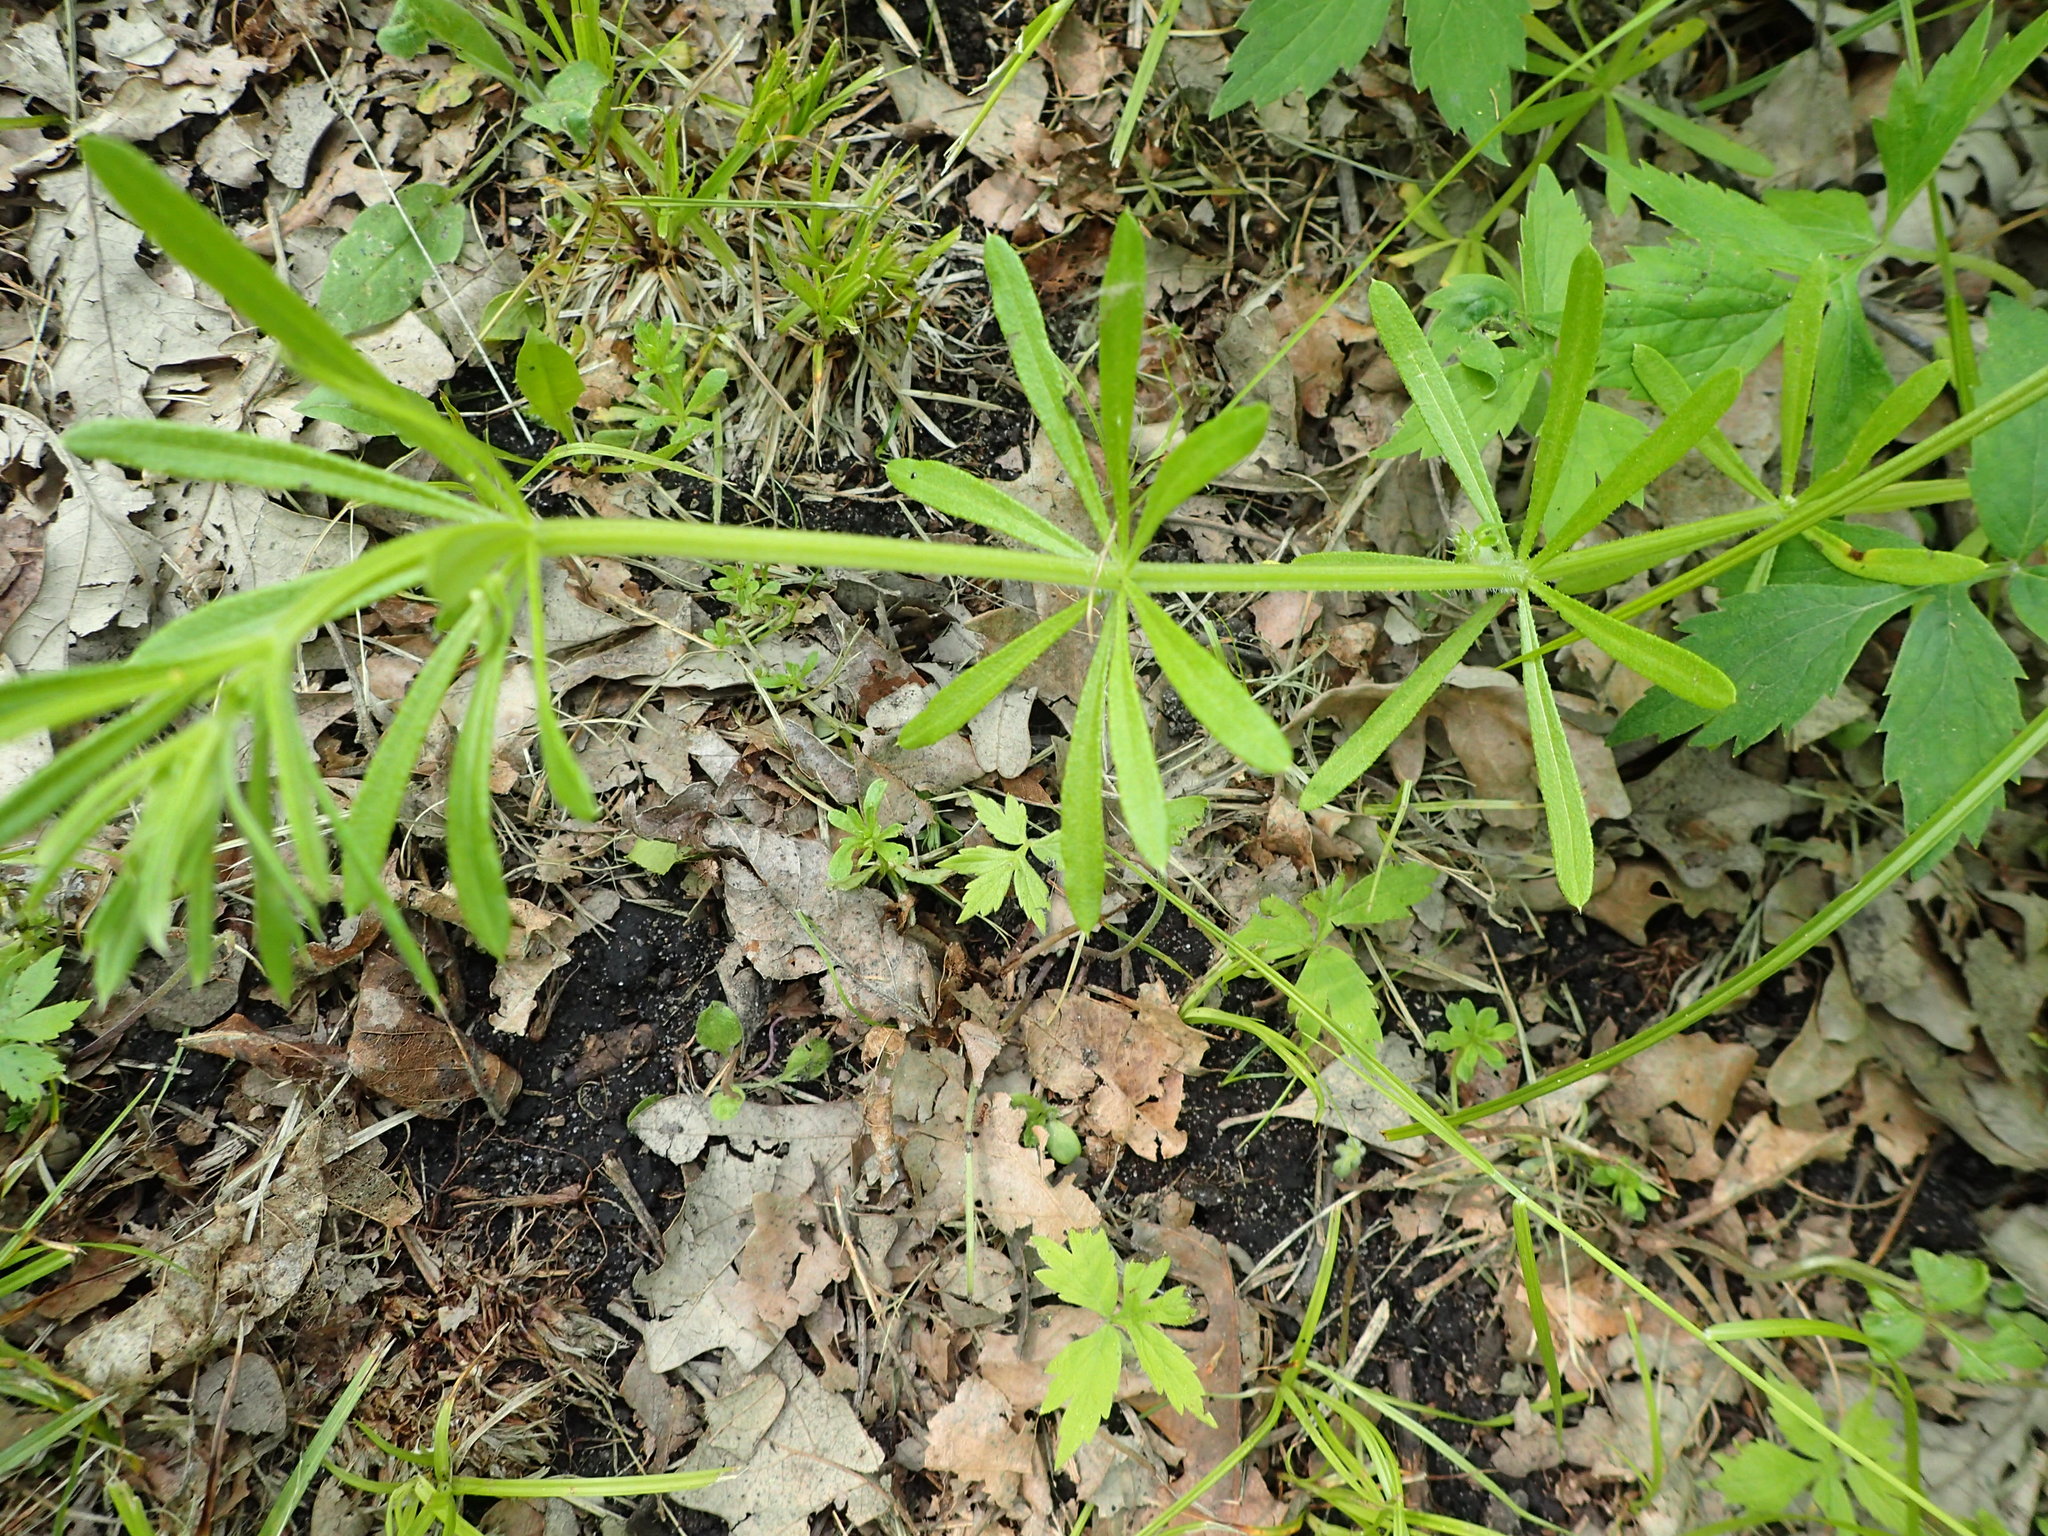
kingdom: Plantae
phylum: Tracheophyta
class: Magnoliopsida
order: Gentianales
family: Rubiaceae
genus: Galium
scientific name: Galium aparine
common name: Cleavers
